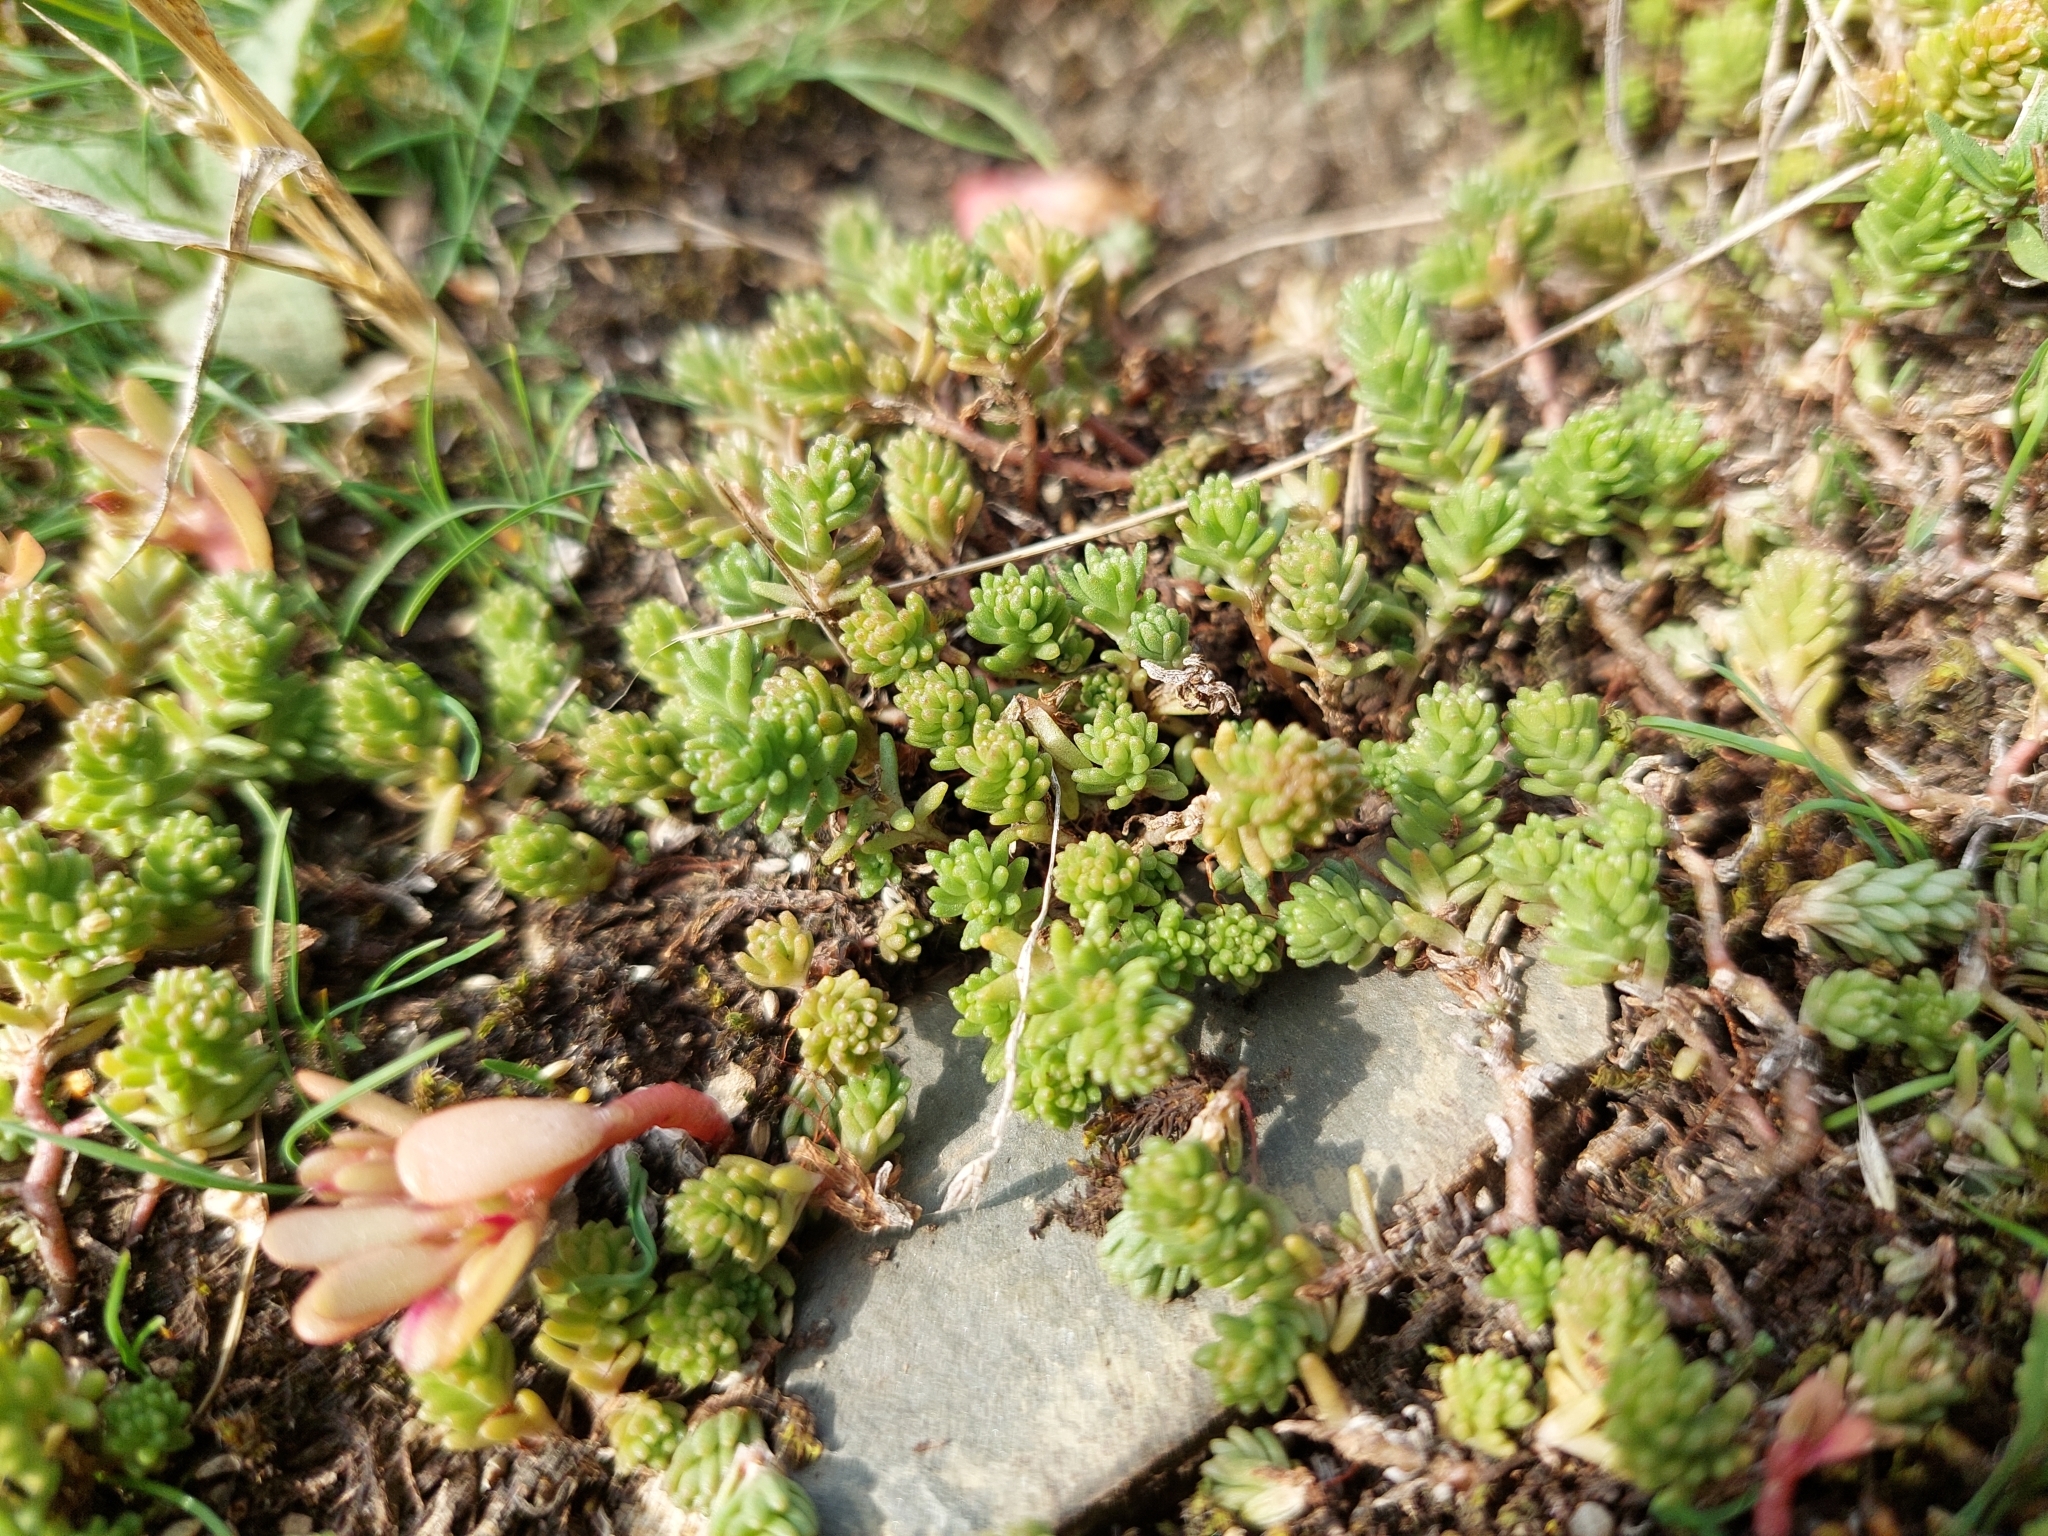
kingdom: Plantae
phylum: Tracheophyta
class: Magnoliopsida
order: Saxifragales
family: Crassulaceae
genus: Sedum
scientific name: Sedum sexangulare
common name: Tasteless stonecrop
